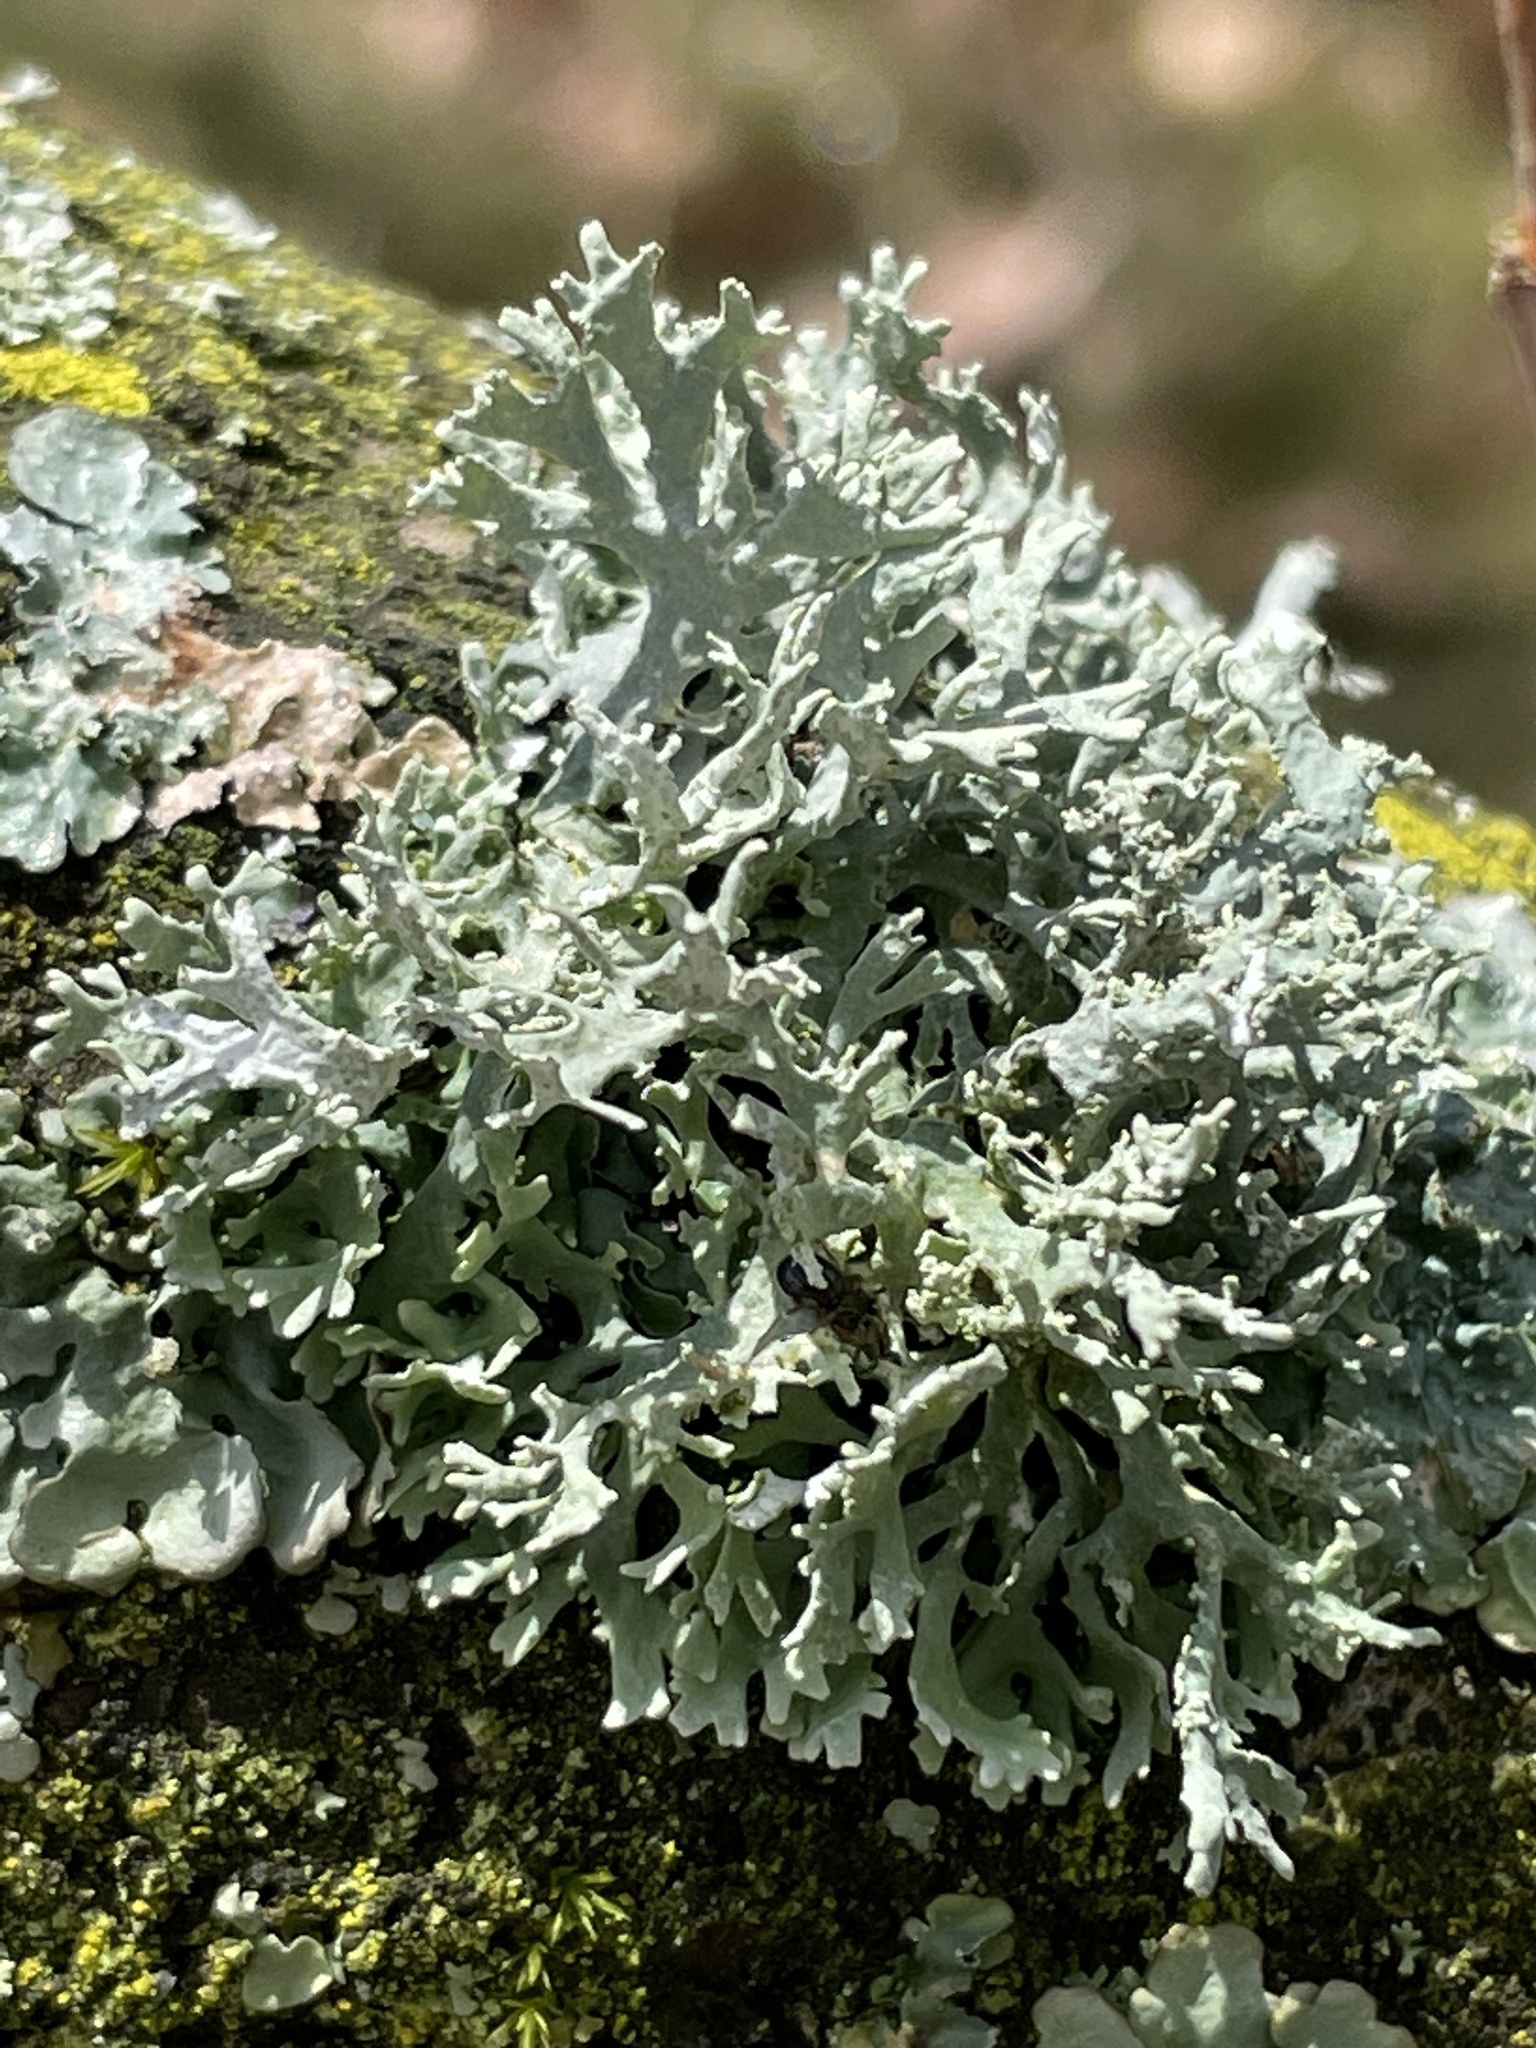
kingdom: Fungi
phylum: Ascomycota
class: Lecanoromycetes
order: Lecanorales
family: Parmeliaceae
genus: Evernia
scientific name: Evernia prunastri
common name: Oak moss
